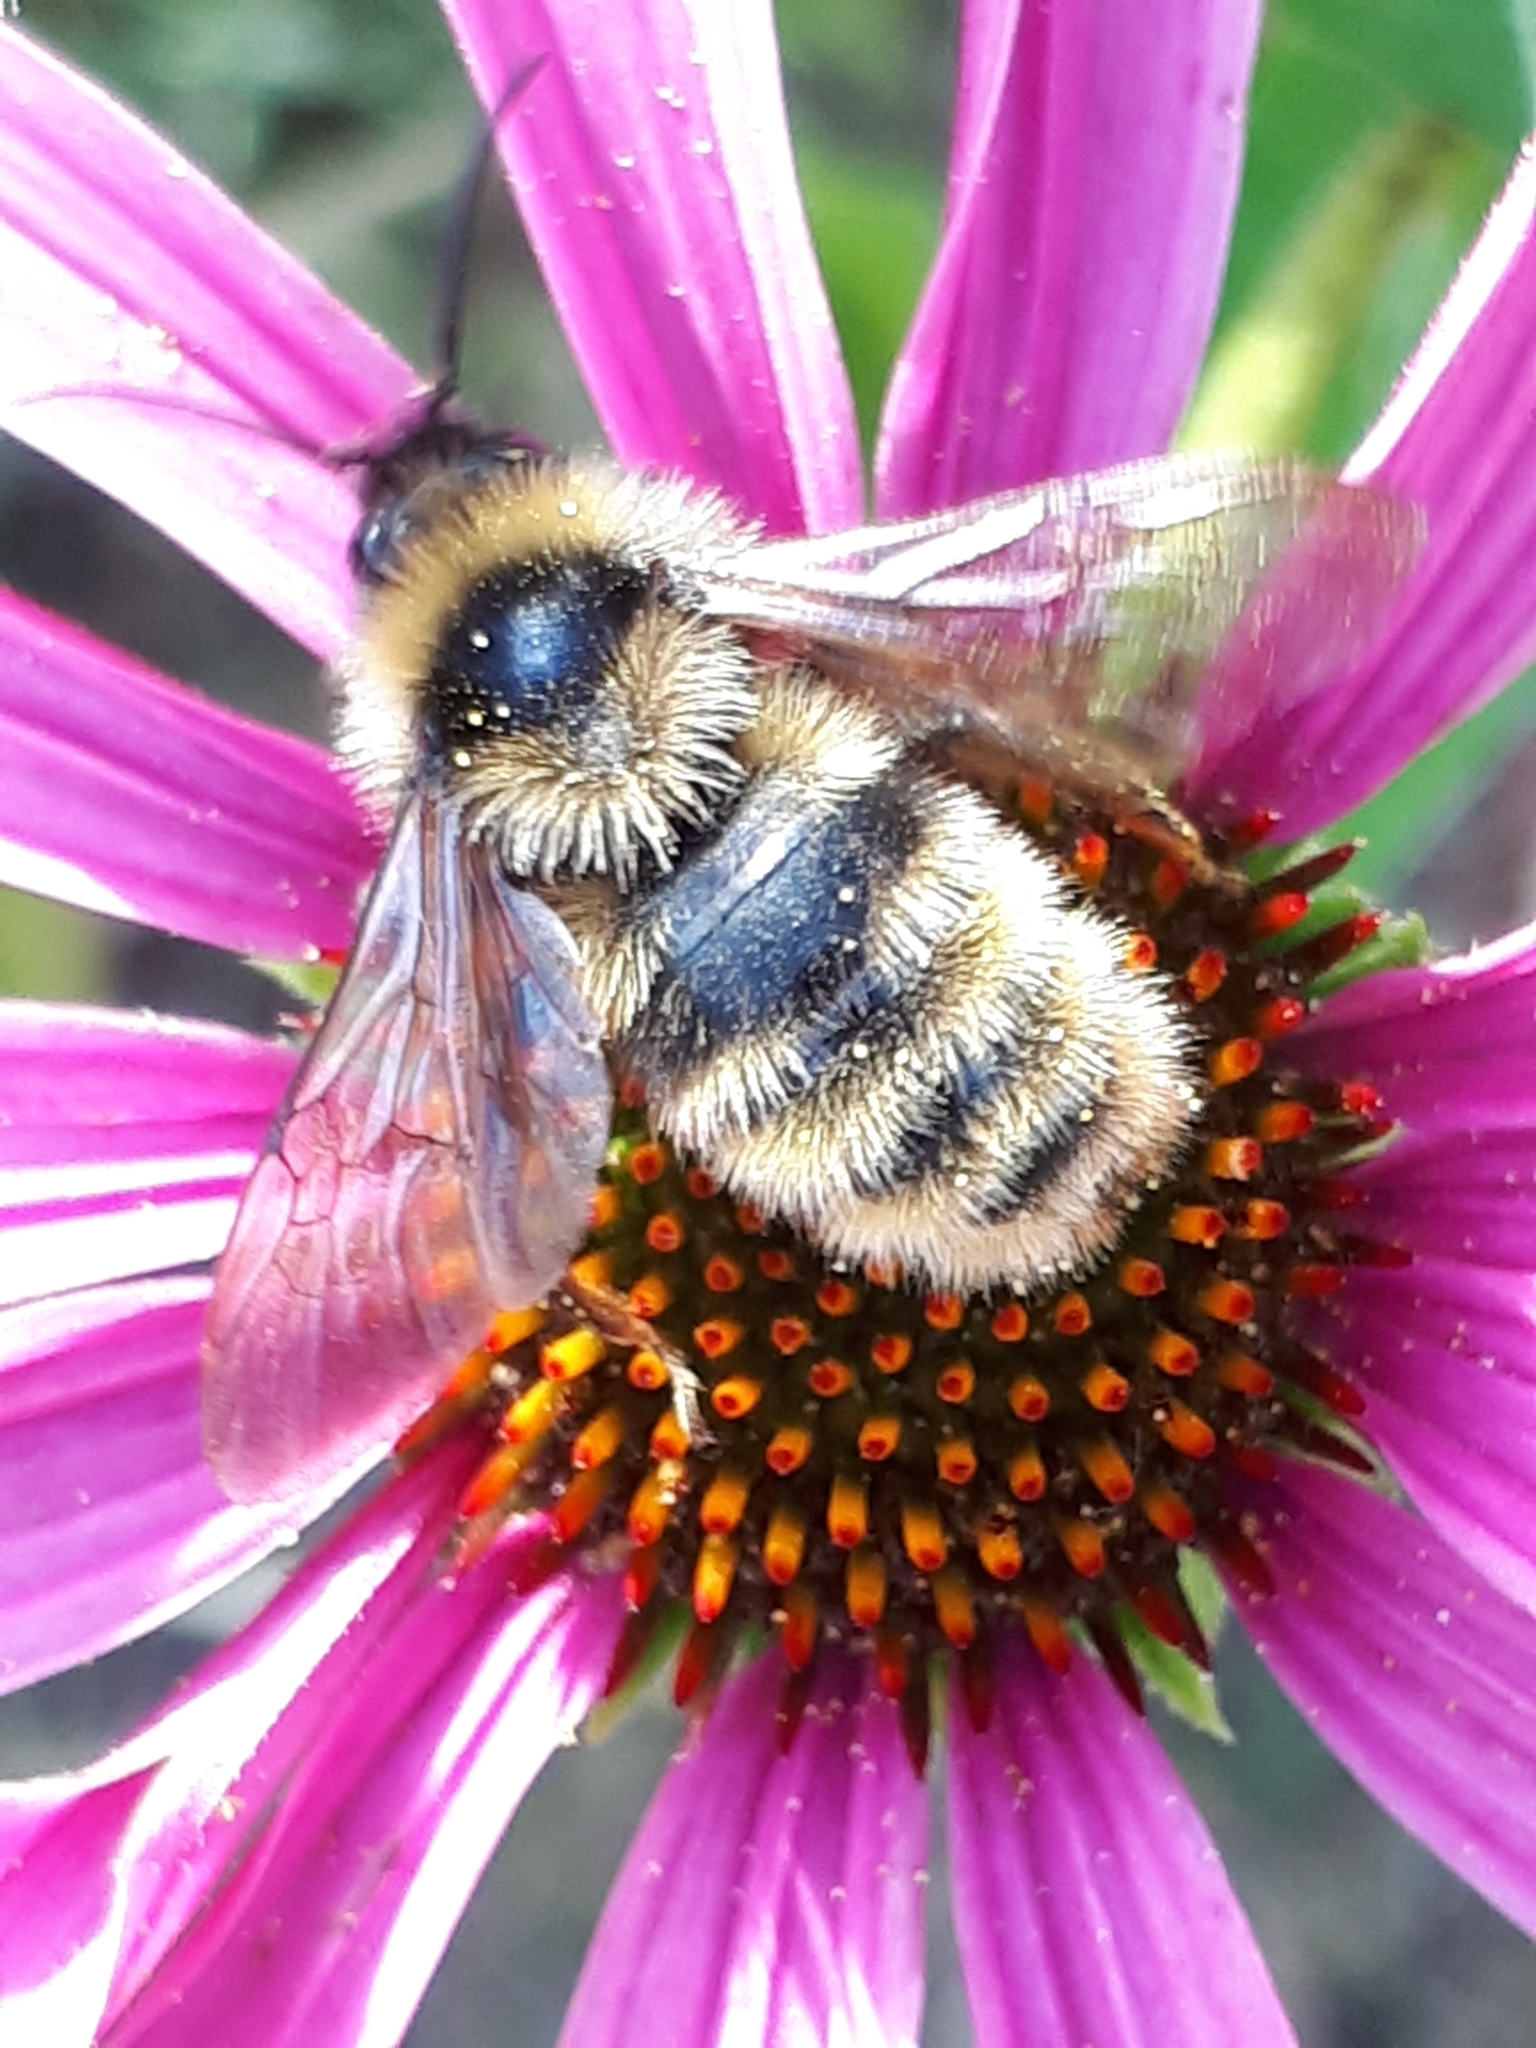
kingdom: Animalia
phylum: Arthropoda
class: Insecta
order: Hymenoptera
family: Apidae
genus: Bombus
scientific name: Bombus campestris
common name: Field cuckoo-bee
